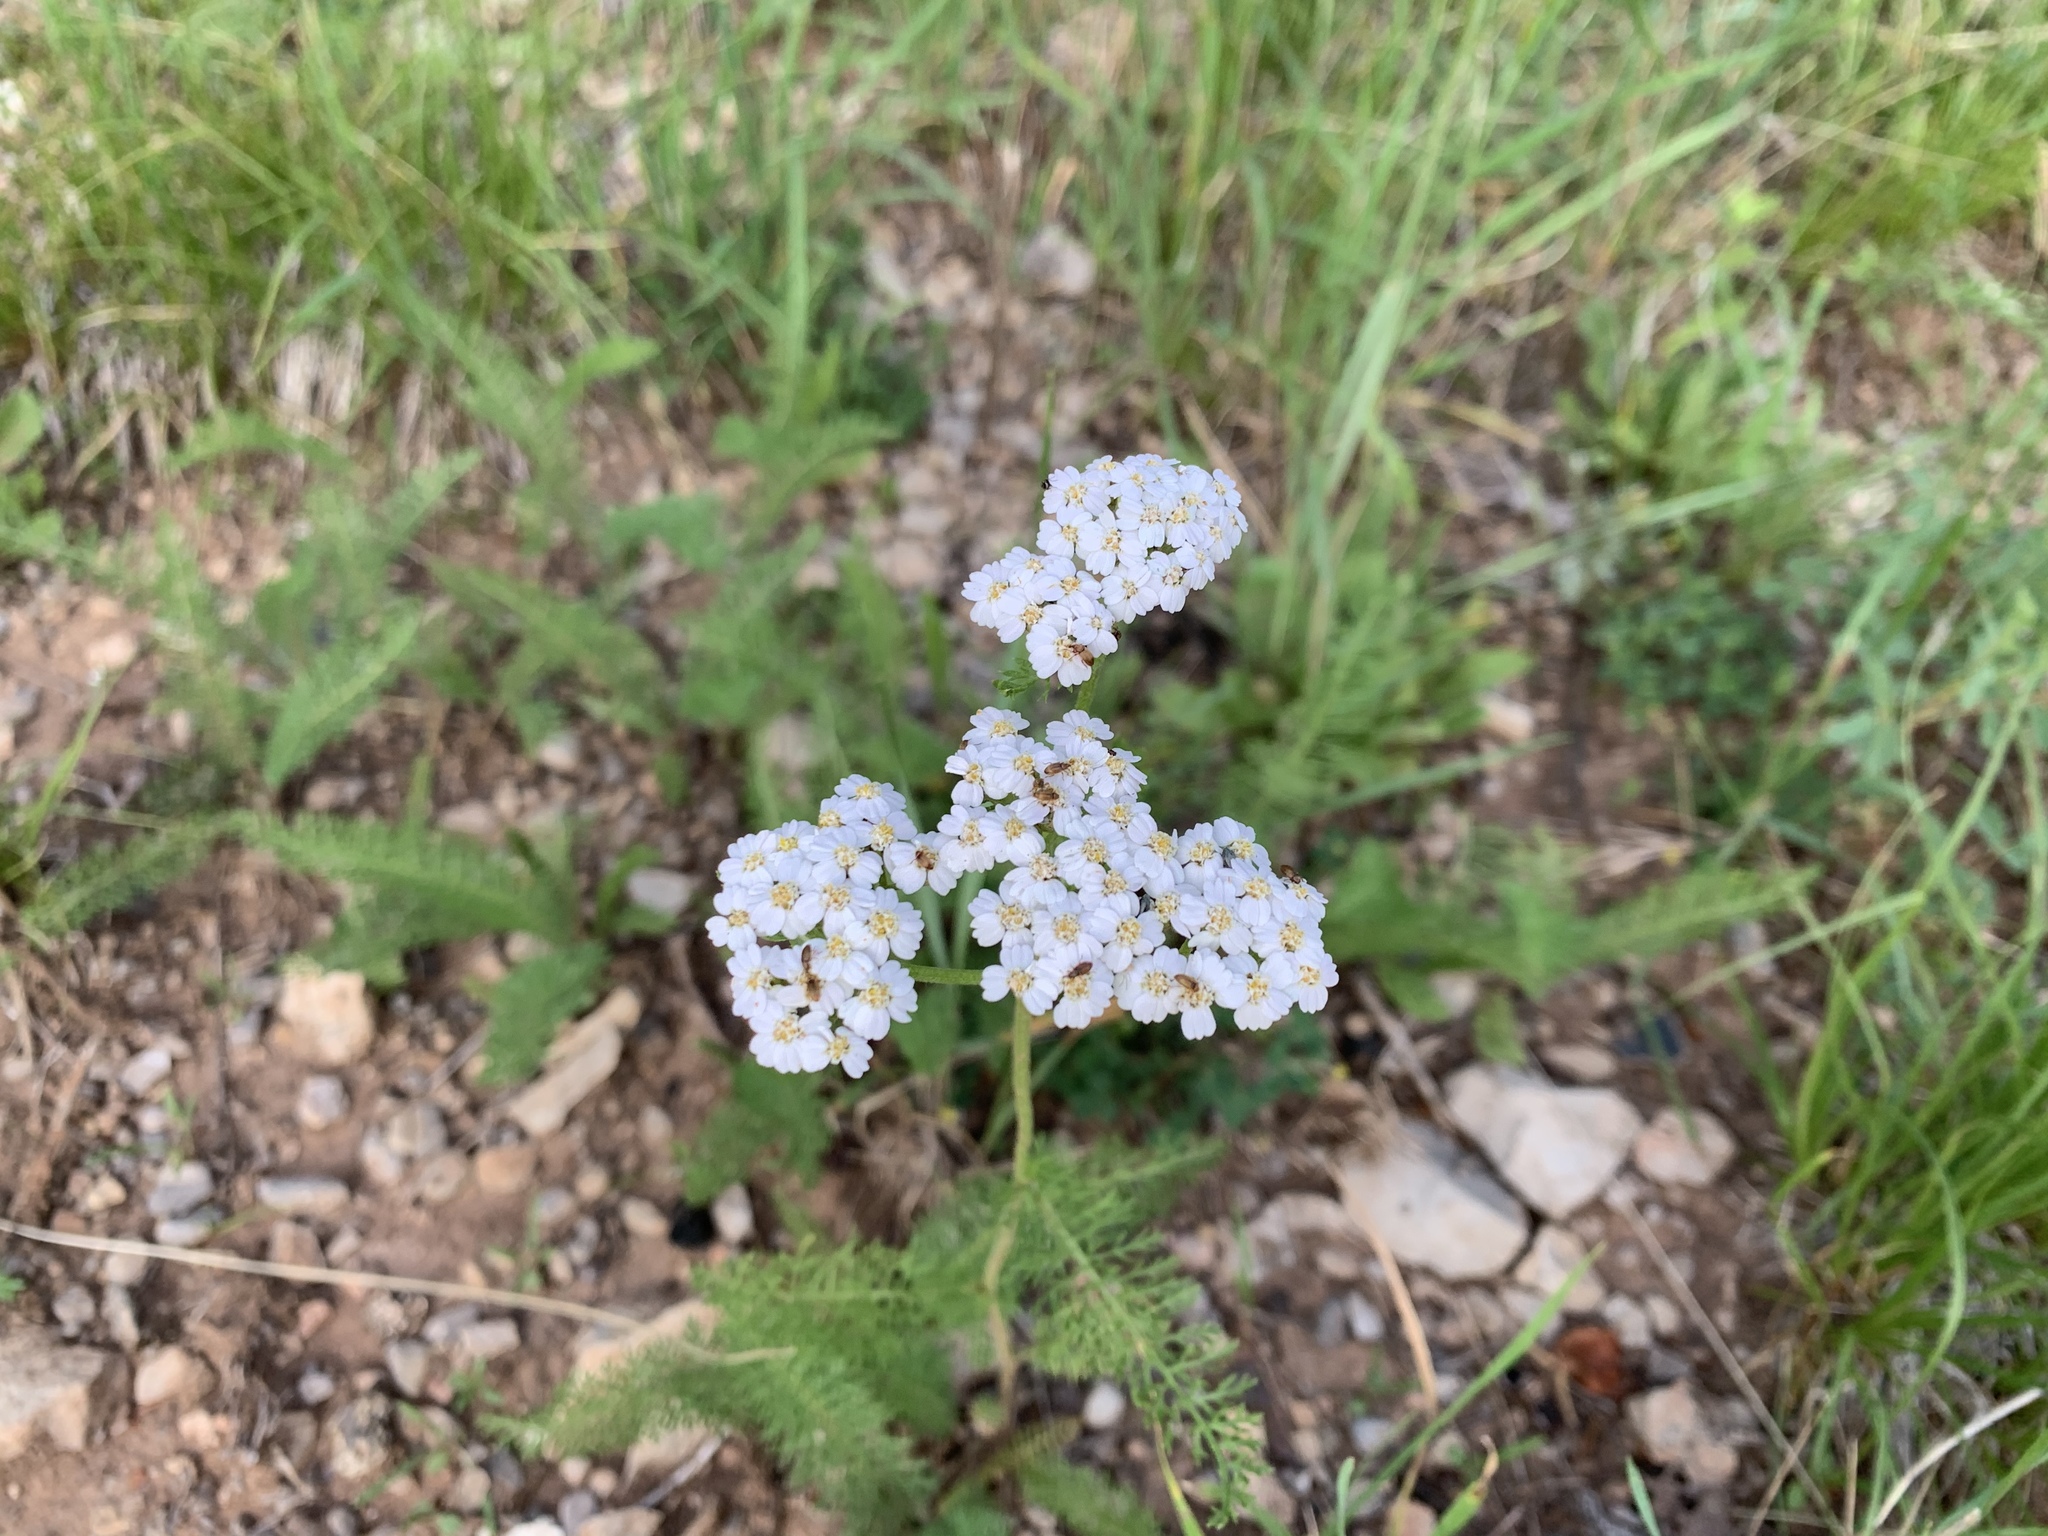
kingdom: Plantae
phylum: Tracheophyta
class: Magnoliopsida
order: Asterales
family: Asteraceae
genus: Achillea
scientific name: Achillea millefolium
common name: Yarrow
